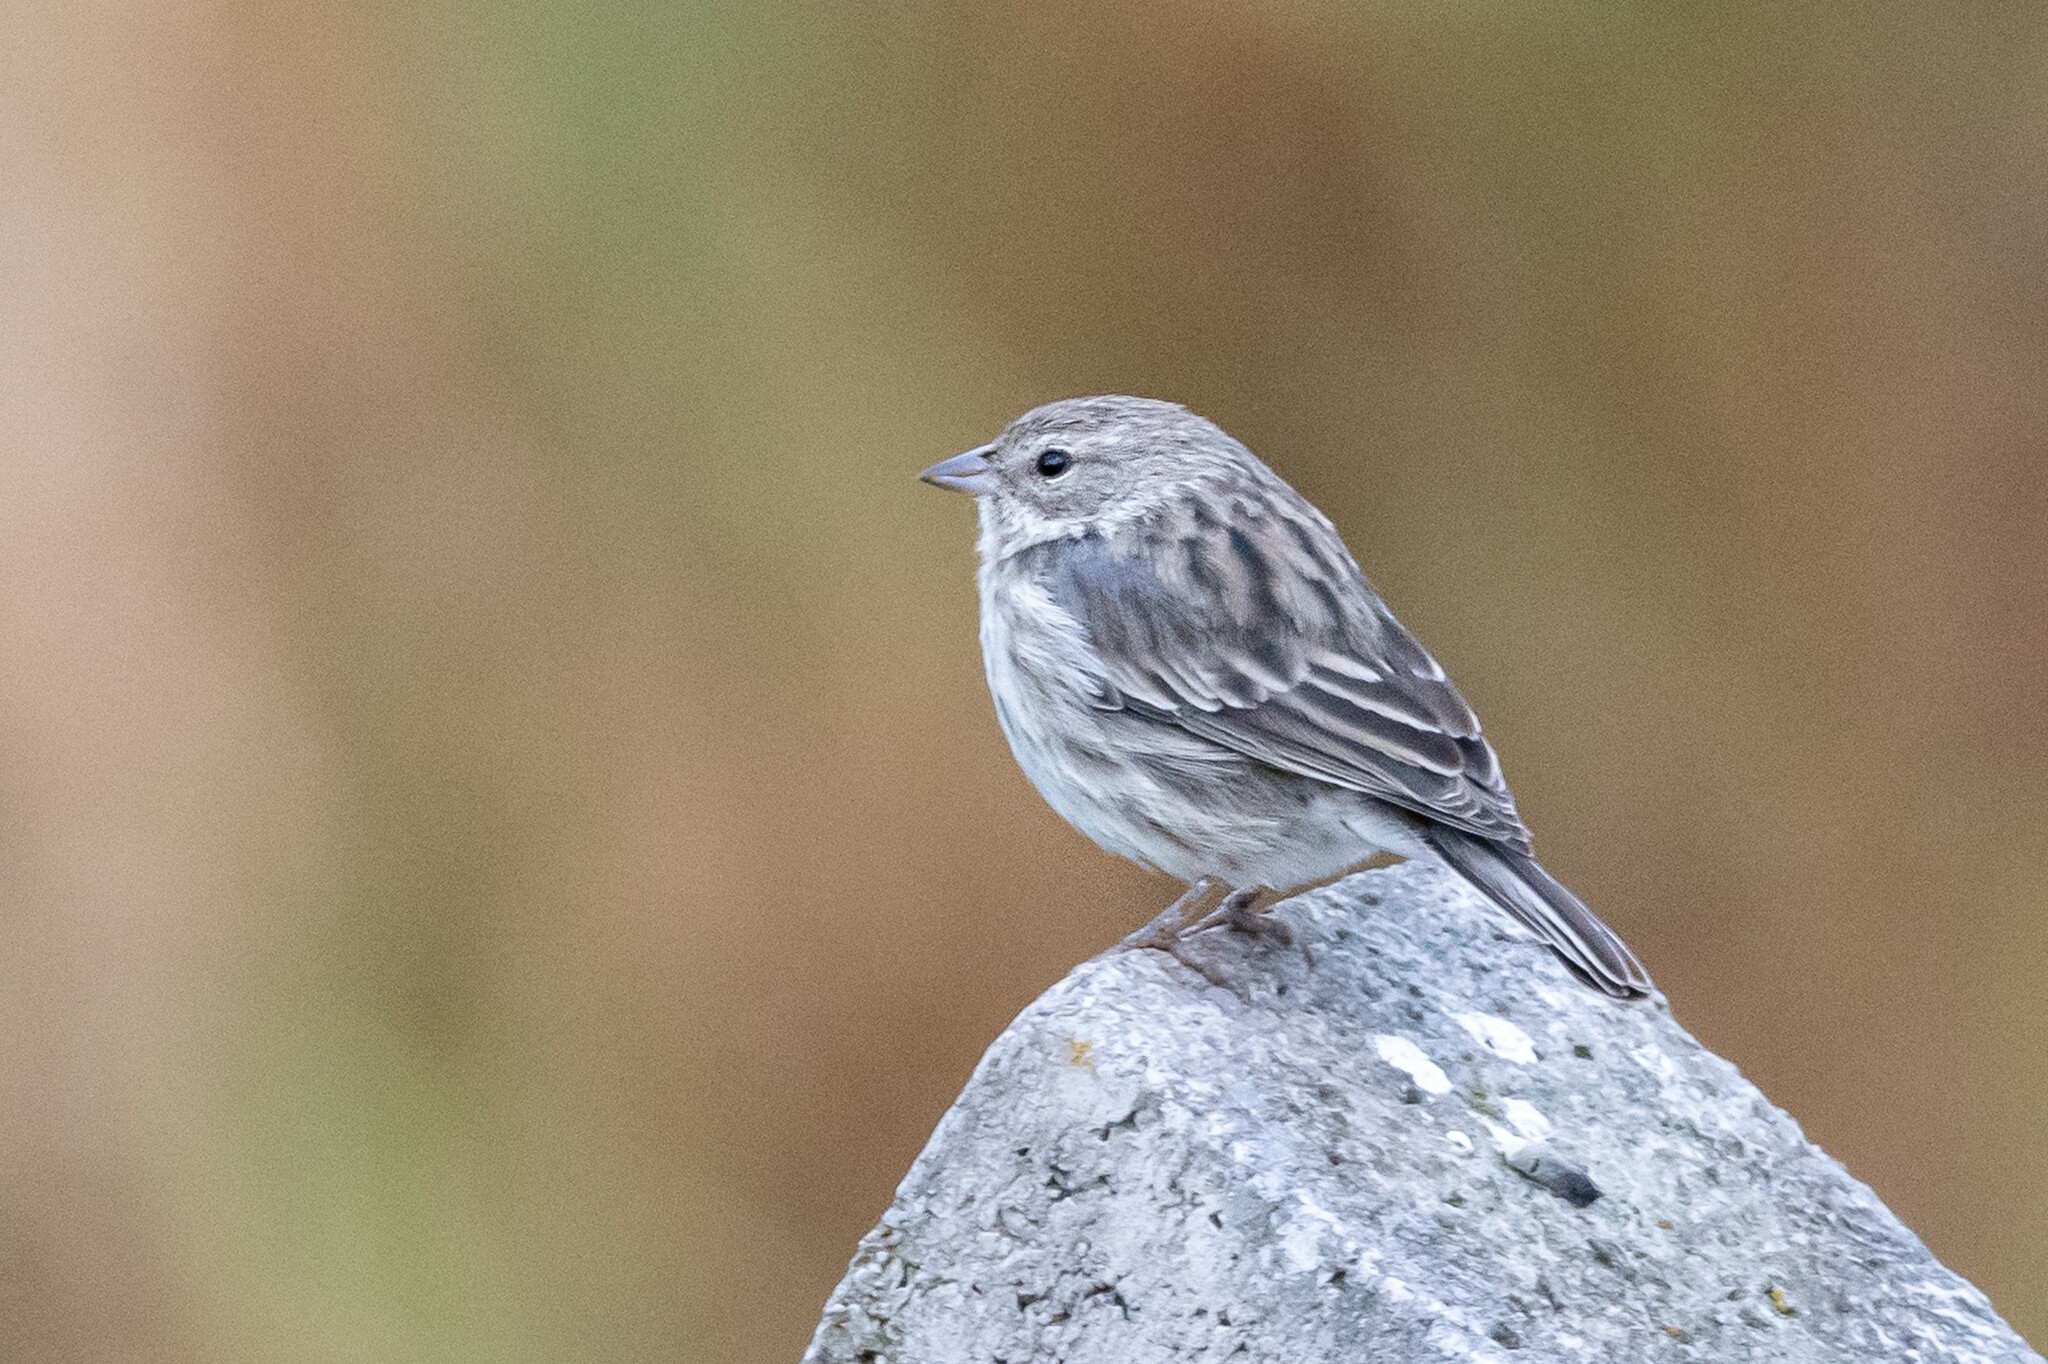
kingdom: Animalia
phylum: Chordata
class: Aves
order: Passeriformes
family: Thraupidae
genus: Geospizopsis
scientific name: Geospizopsis plebejus
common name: Ash-breasted sierra-finch
